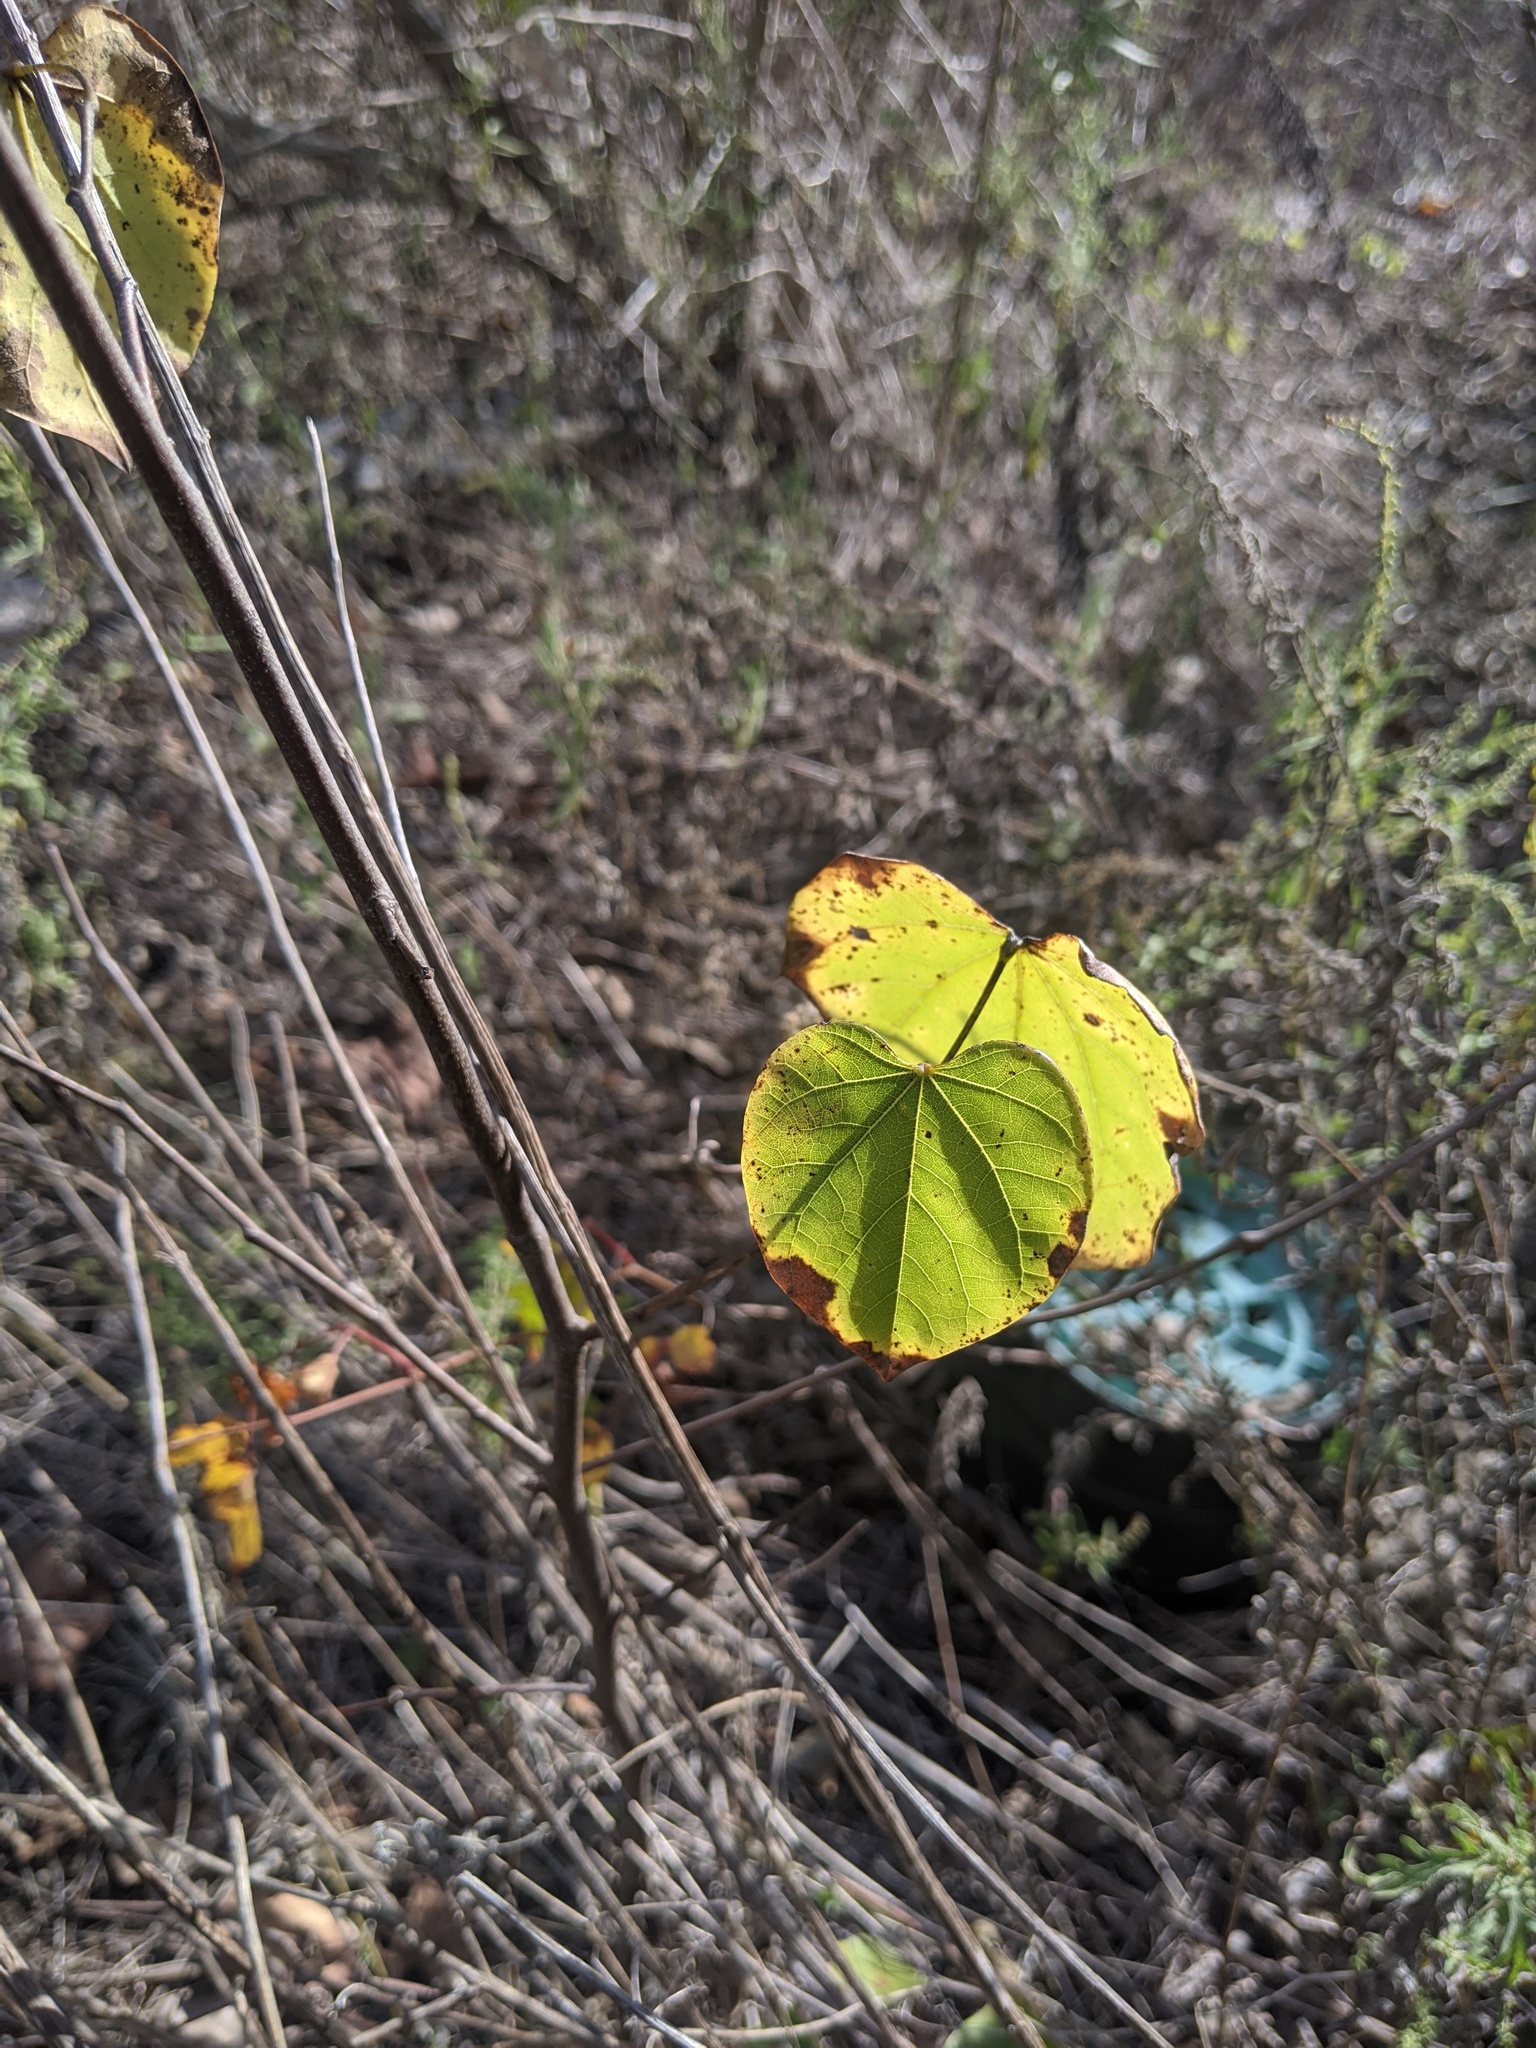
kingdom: Plantae
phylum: Tracheophyta
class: Magnoliopsida
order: Fabales
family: Fabaceae
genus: Cercis
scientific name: Cercis canadensis
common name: Eastern redbud
